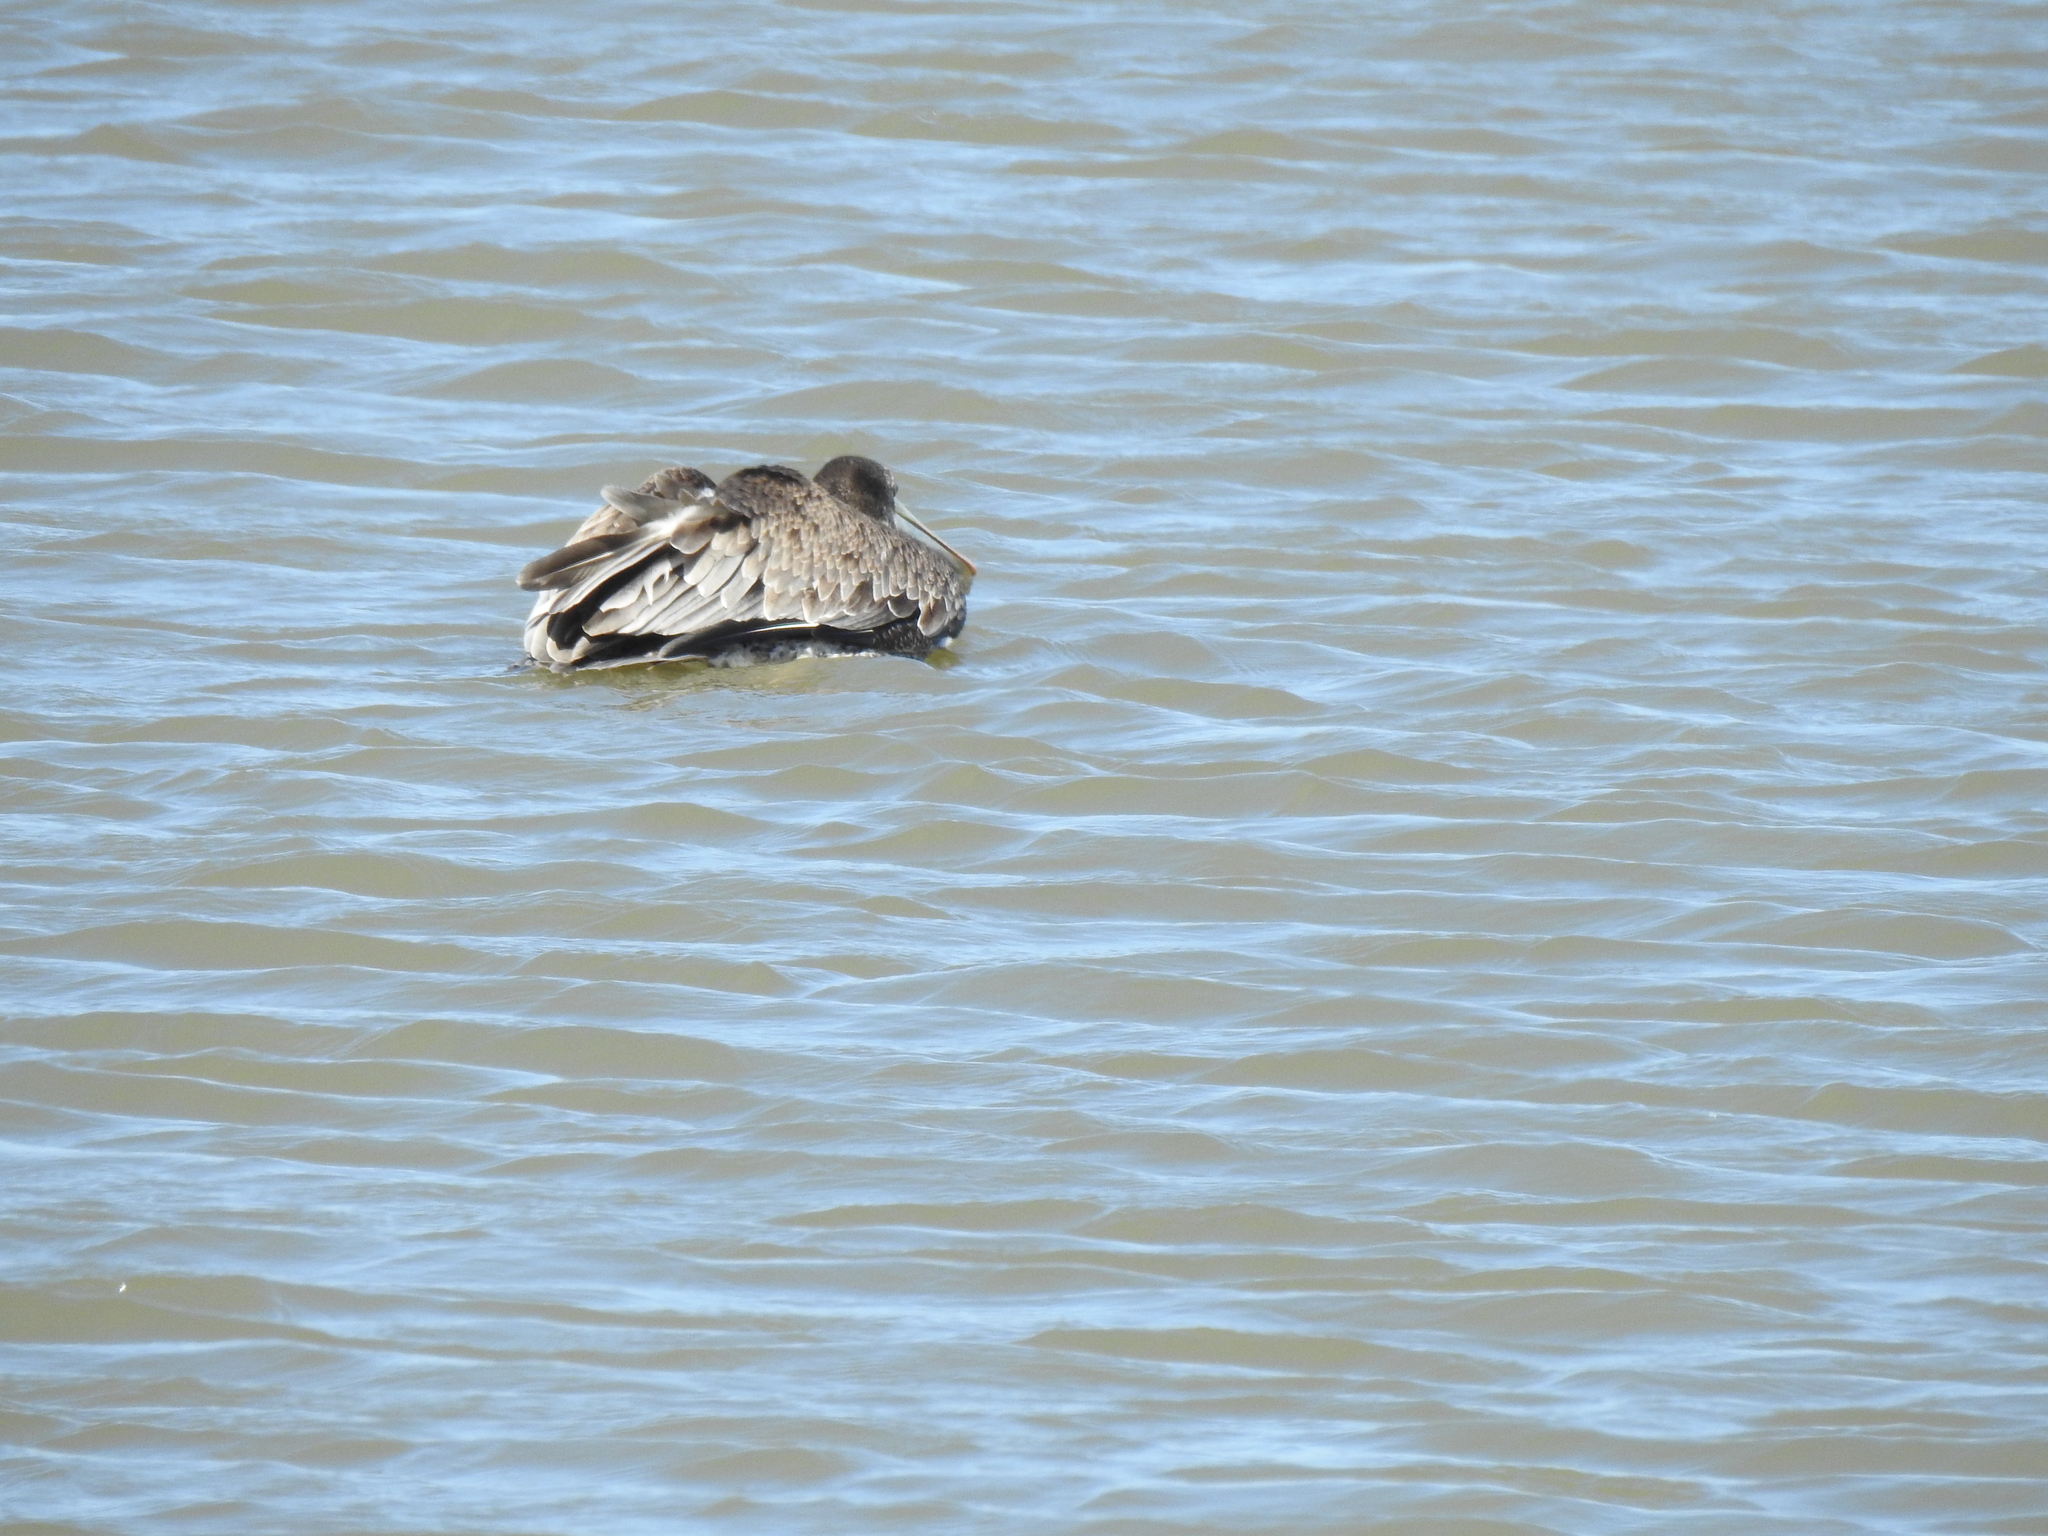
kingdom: Animalia
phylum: Chordata
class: Aves
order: Pelecaniformes
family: Pelecanidae
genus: Pelecanus
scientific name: Pelecanus occidentalis
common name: Brown pelican
